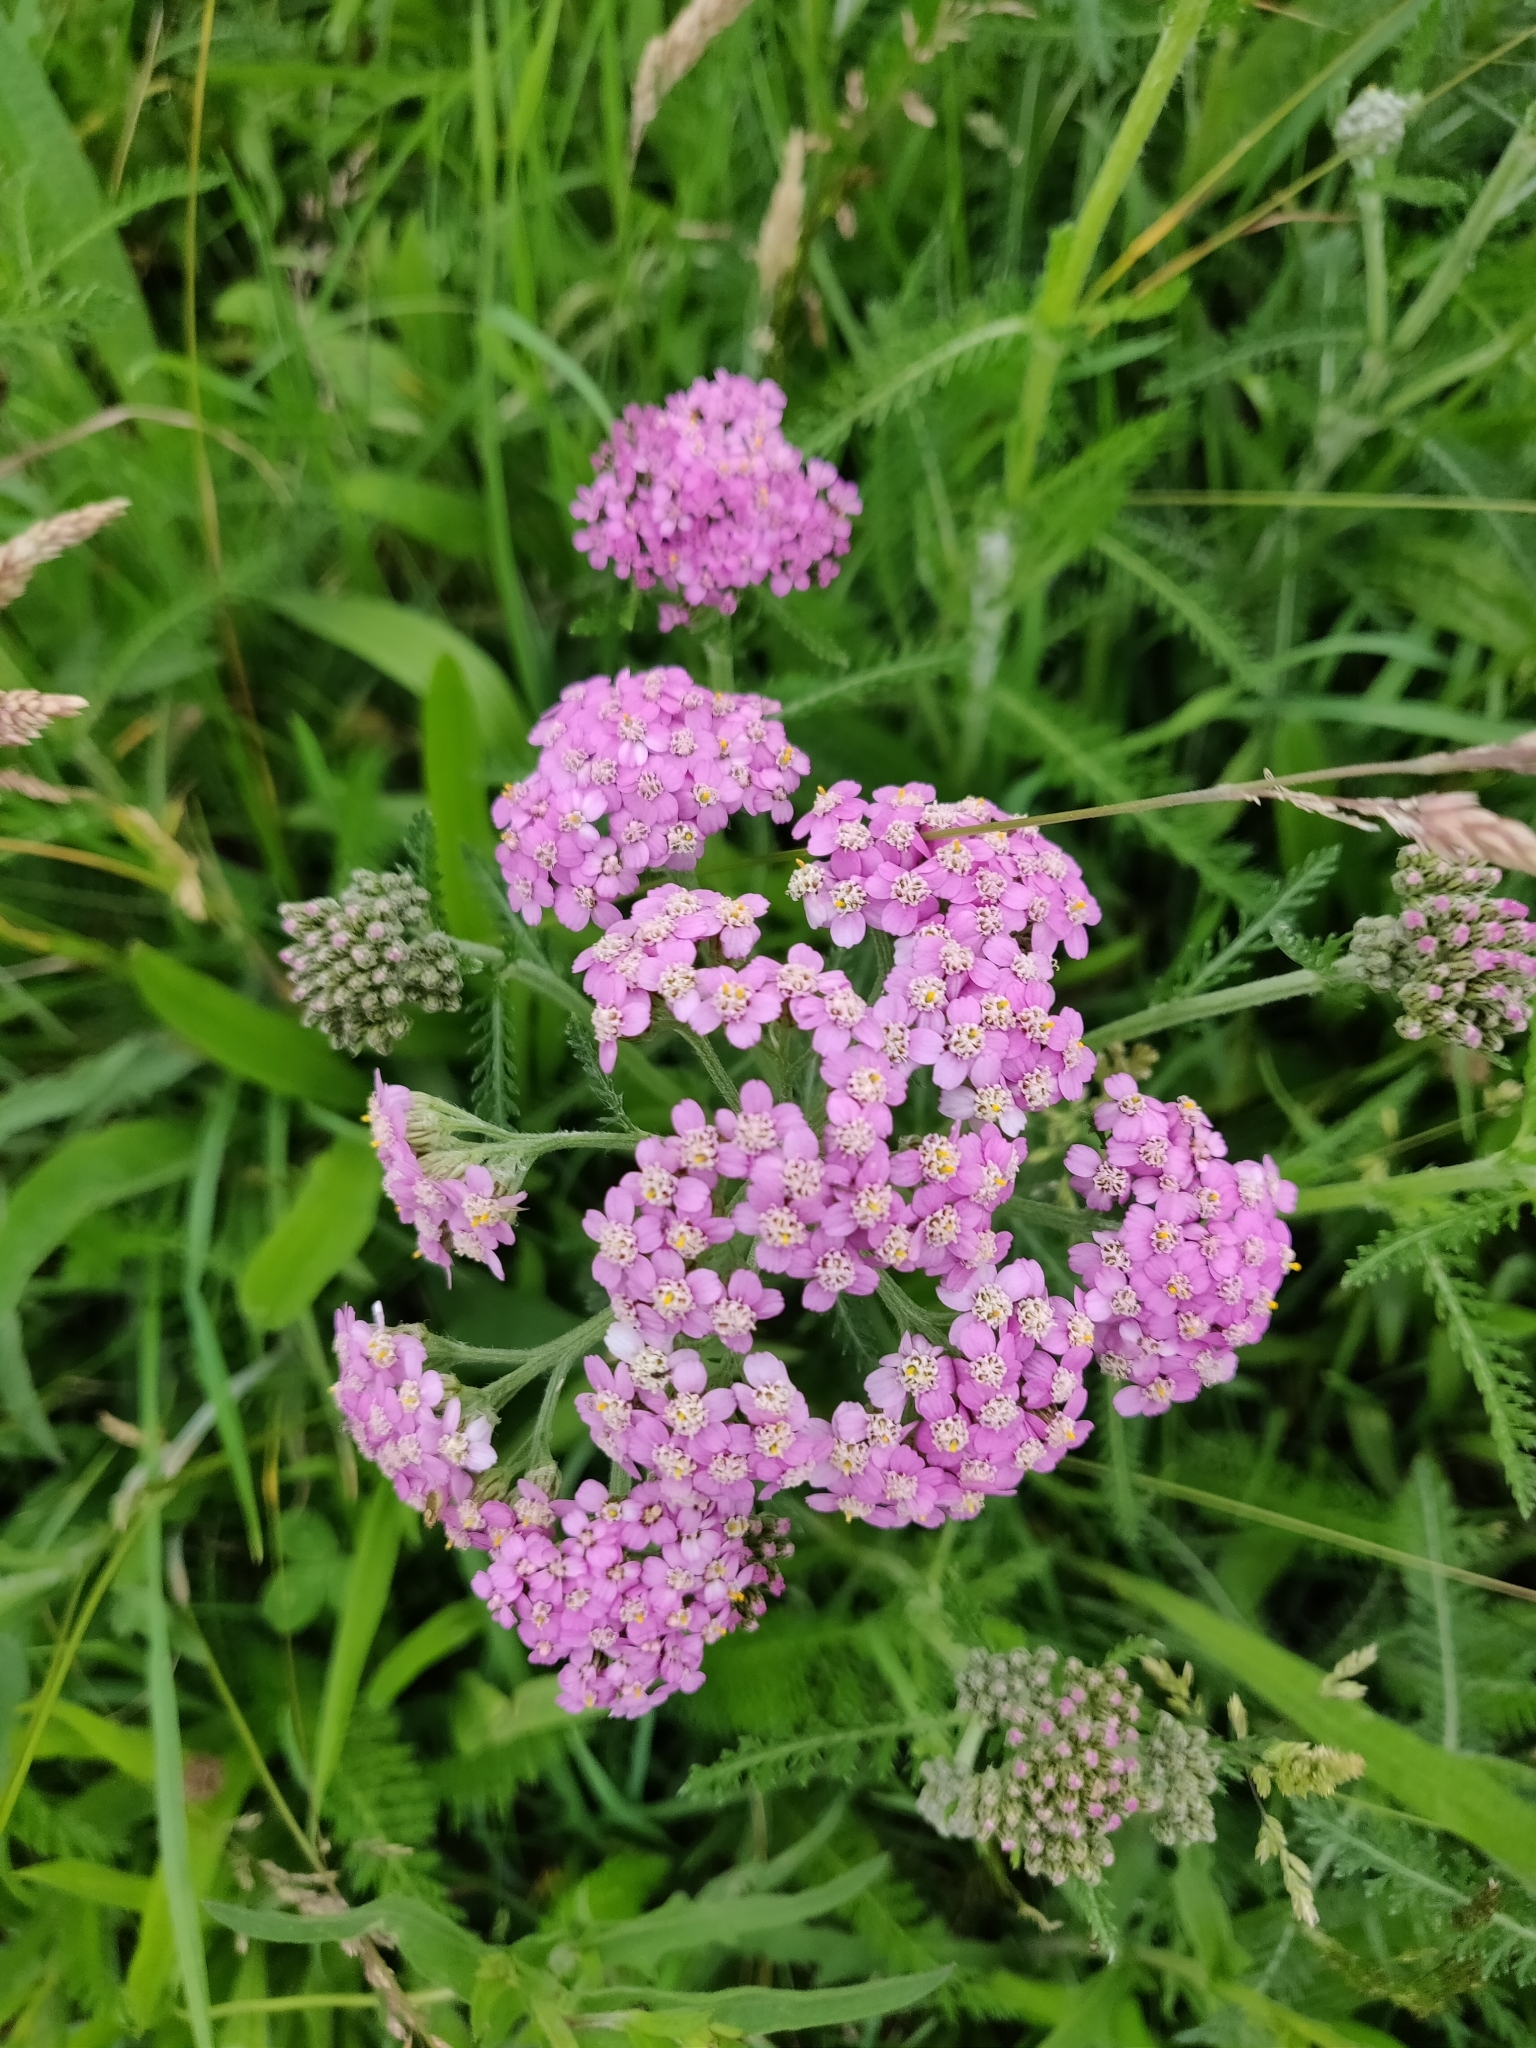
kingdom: Plantae
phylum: Tracheophyta
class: Magnoliopsida
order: Asterales
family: Asteraceae
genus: Achillea
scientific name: Achillea millefolium
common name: Yarrow
